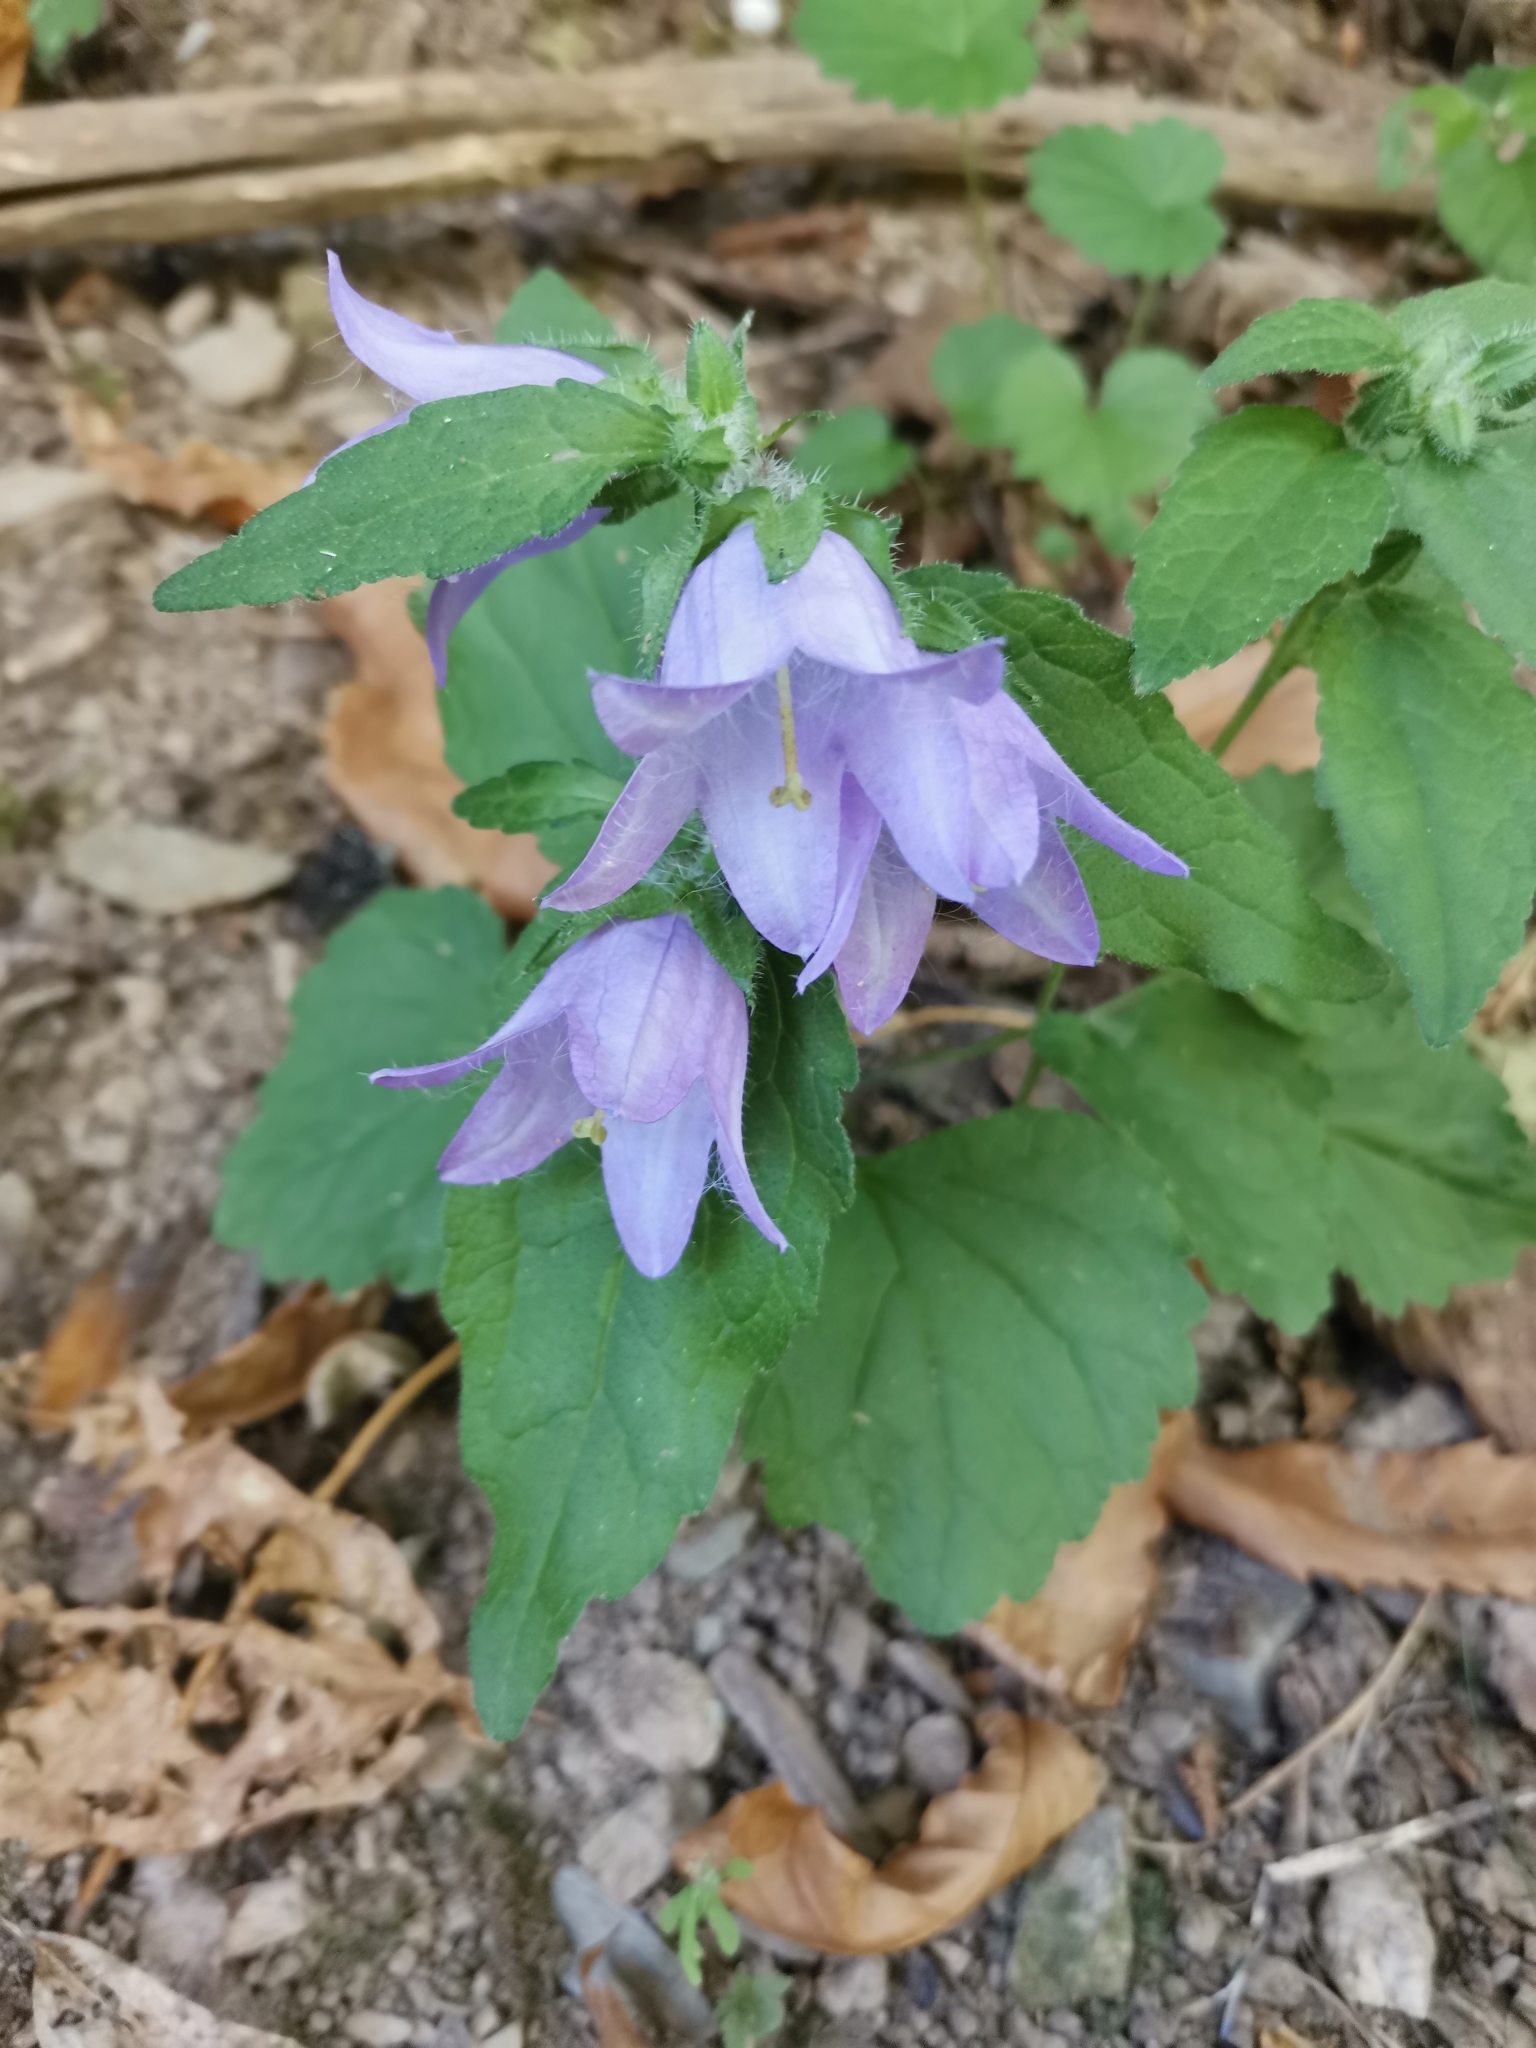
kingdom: Plantae
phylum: Tracheophyta
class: Magnoliopsida
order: Asterales
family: Campanulaceae
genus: Campanula
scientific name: Campanula trachelium
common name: Nettle-leaved bellflower
